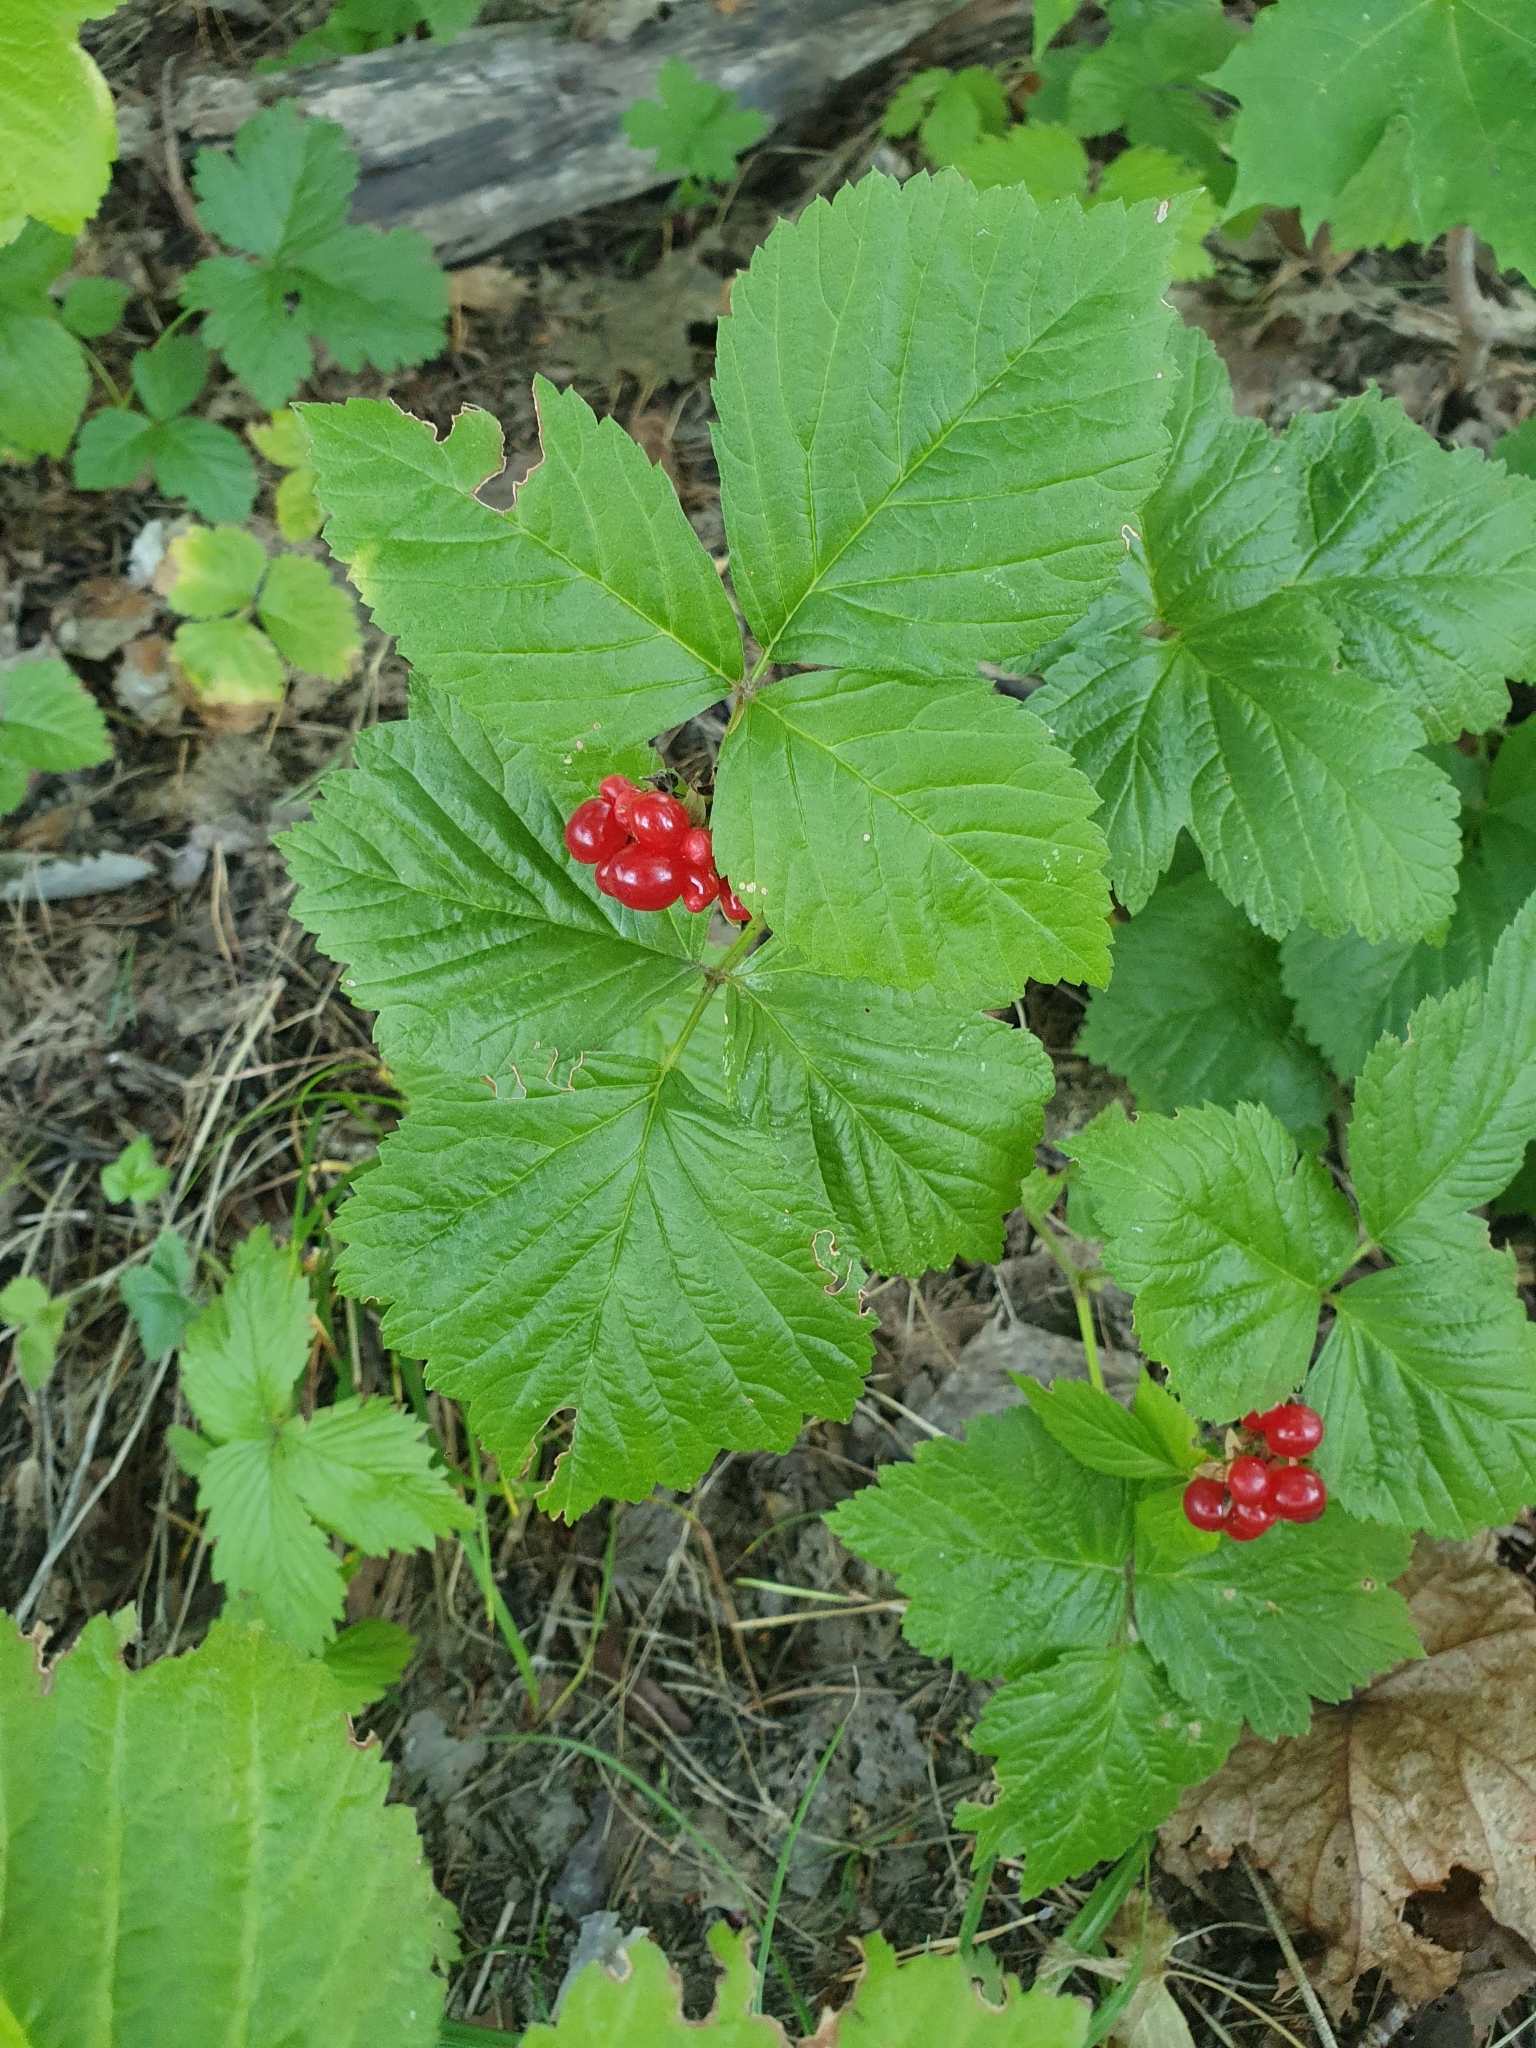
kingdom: Plantae
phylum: Tracheophyta
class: Magnoliopsida
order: Rosales
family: Rosaceae
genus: Rubus
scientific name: Rubus saxatilis
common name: Stone bramble
